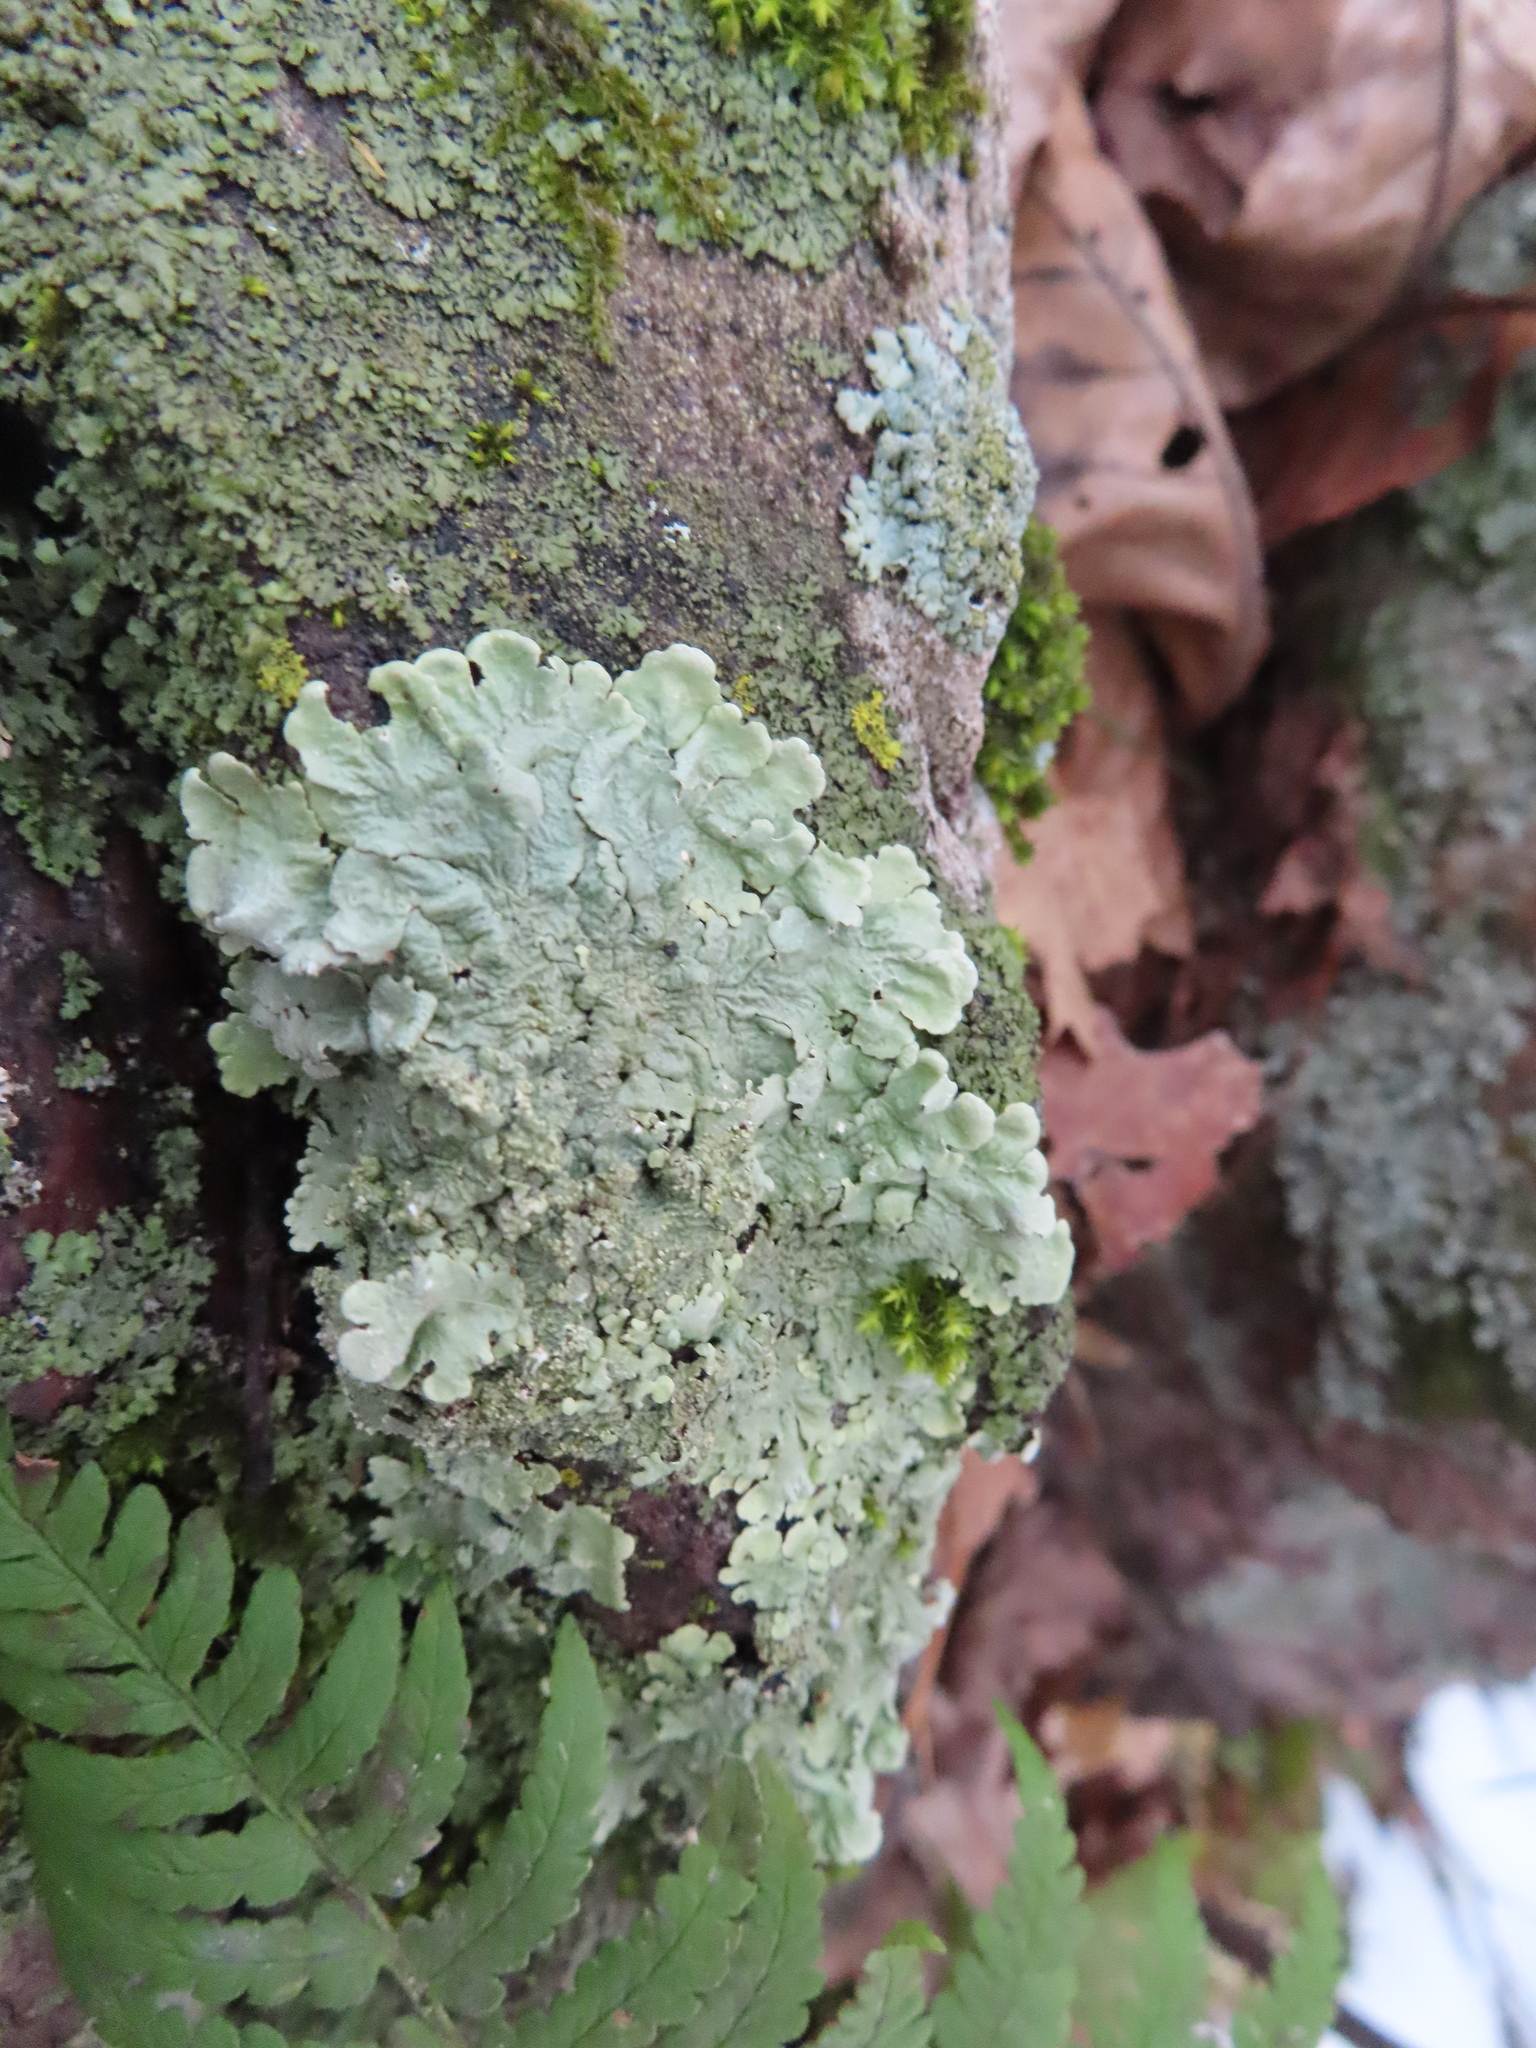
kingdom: Fungi
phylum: Ascomycota
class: Lecanoromycetes
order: Lecanorales
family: Parmeliaceae
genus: Flavoparmelia
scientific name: Flavoparmelia caperata
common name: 40-mile per hour lichen
